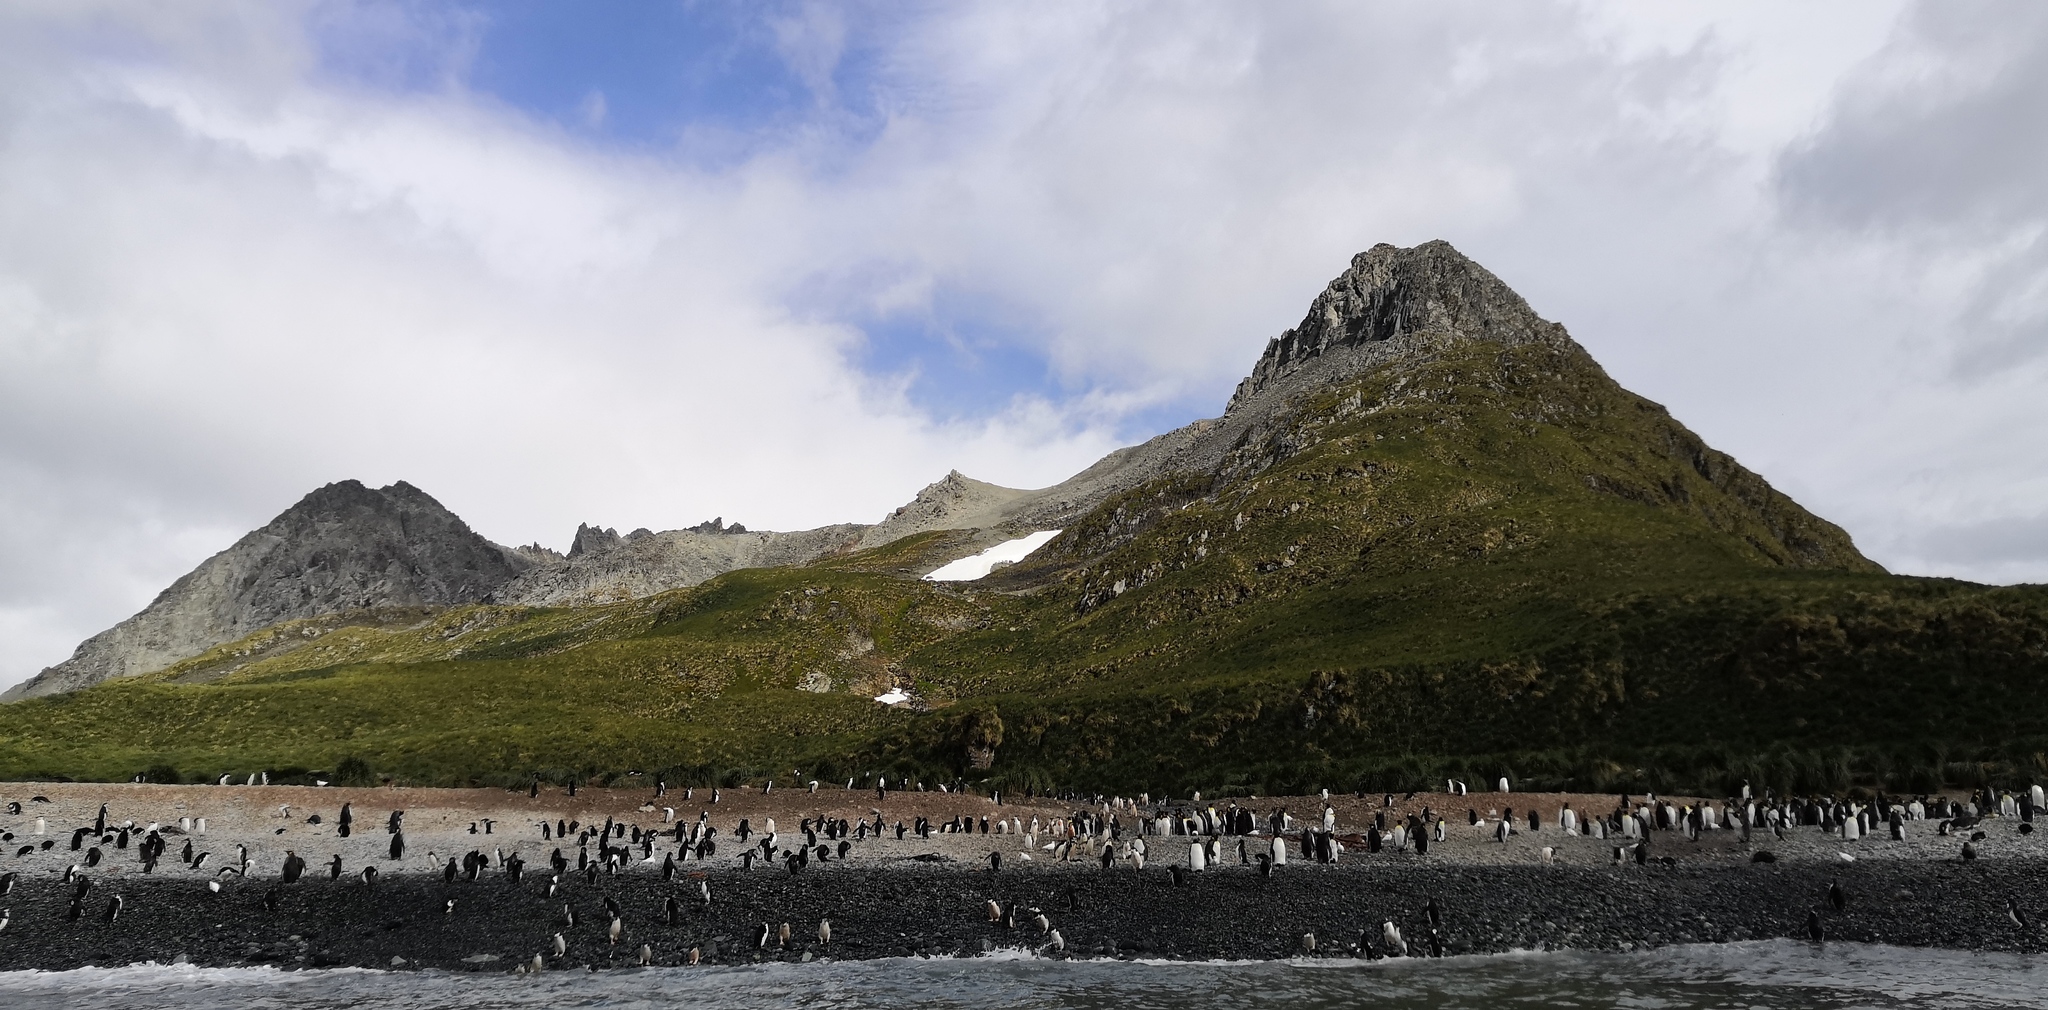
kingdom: Animalia
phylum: Chordata
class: Aves
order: Sphenisciformes
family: Spheniscidae
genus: Pygoscelis
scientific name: Pygoscelis antarcticus
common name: Chinstrap penguin
